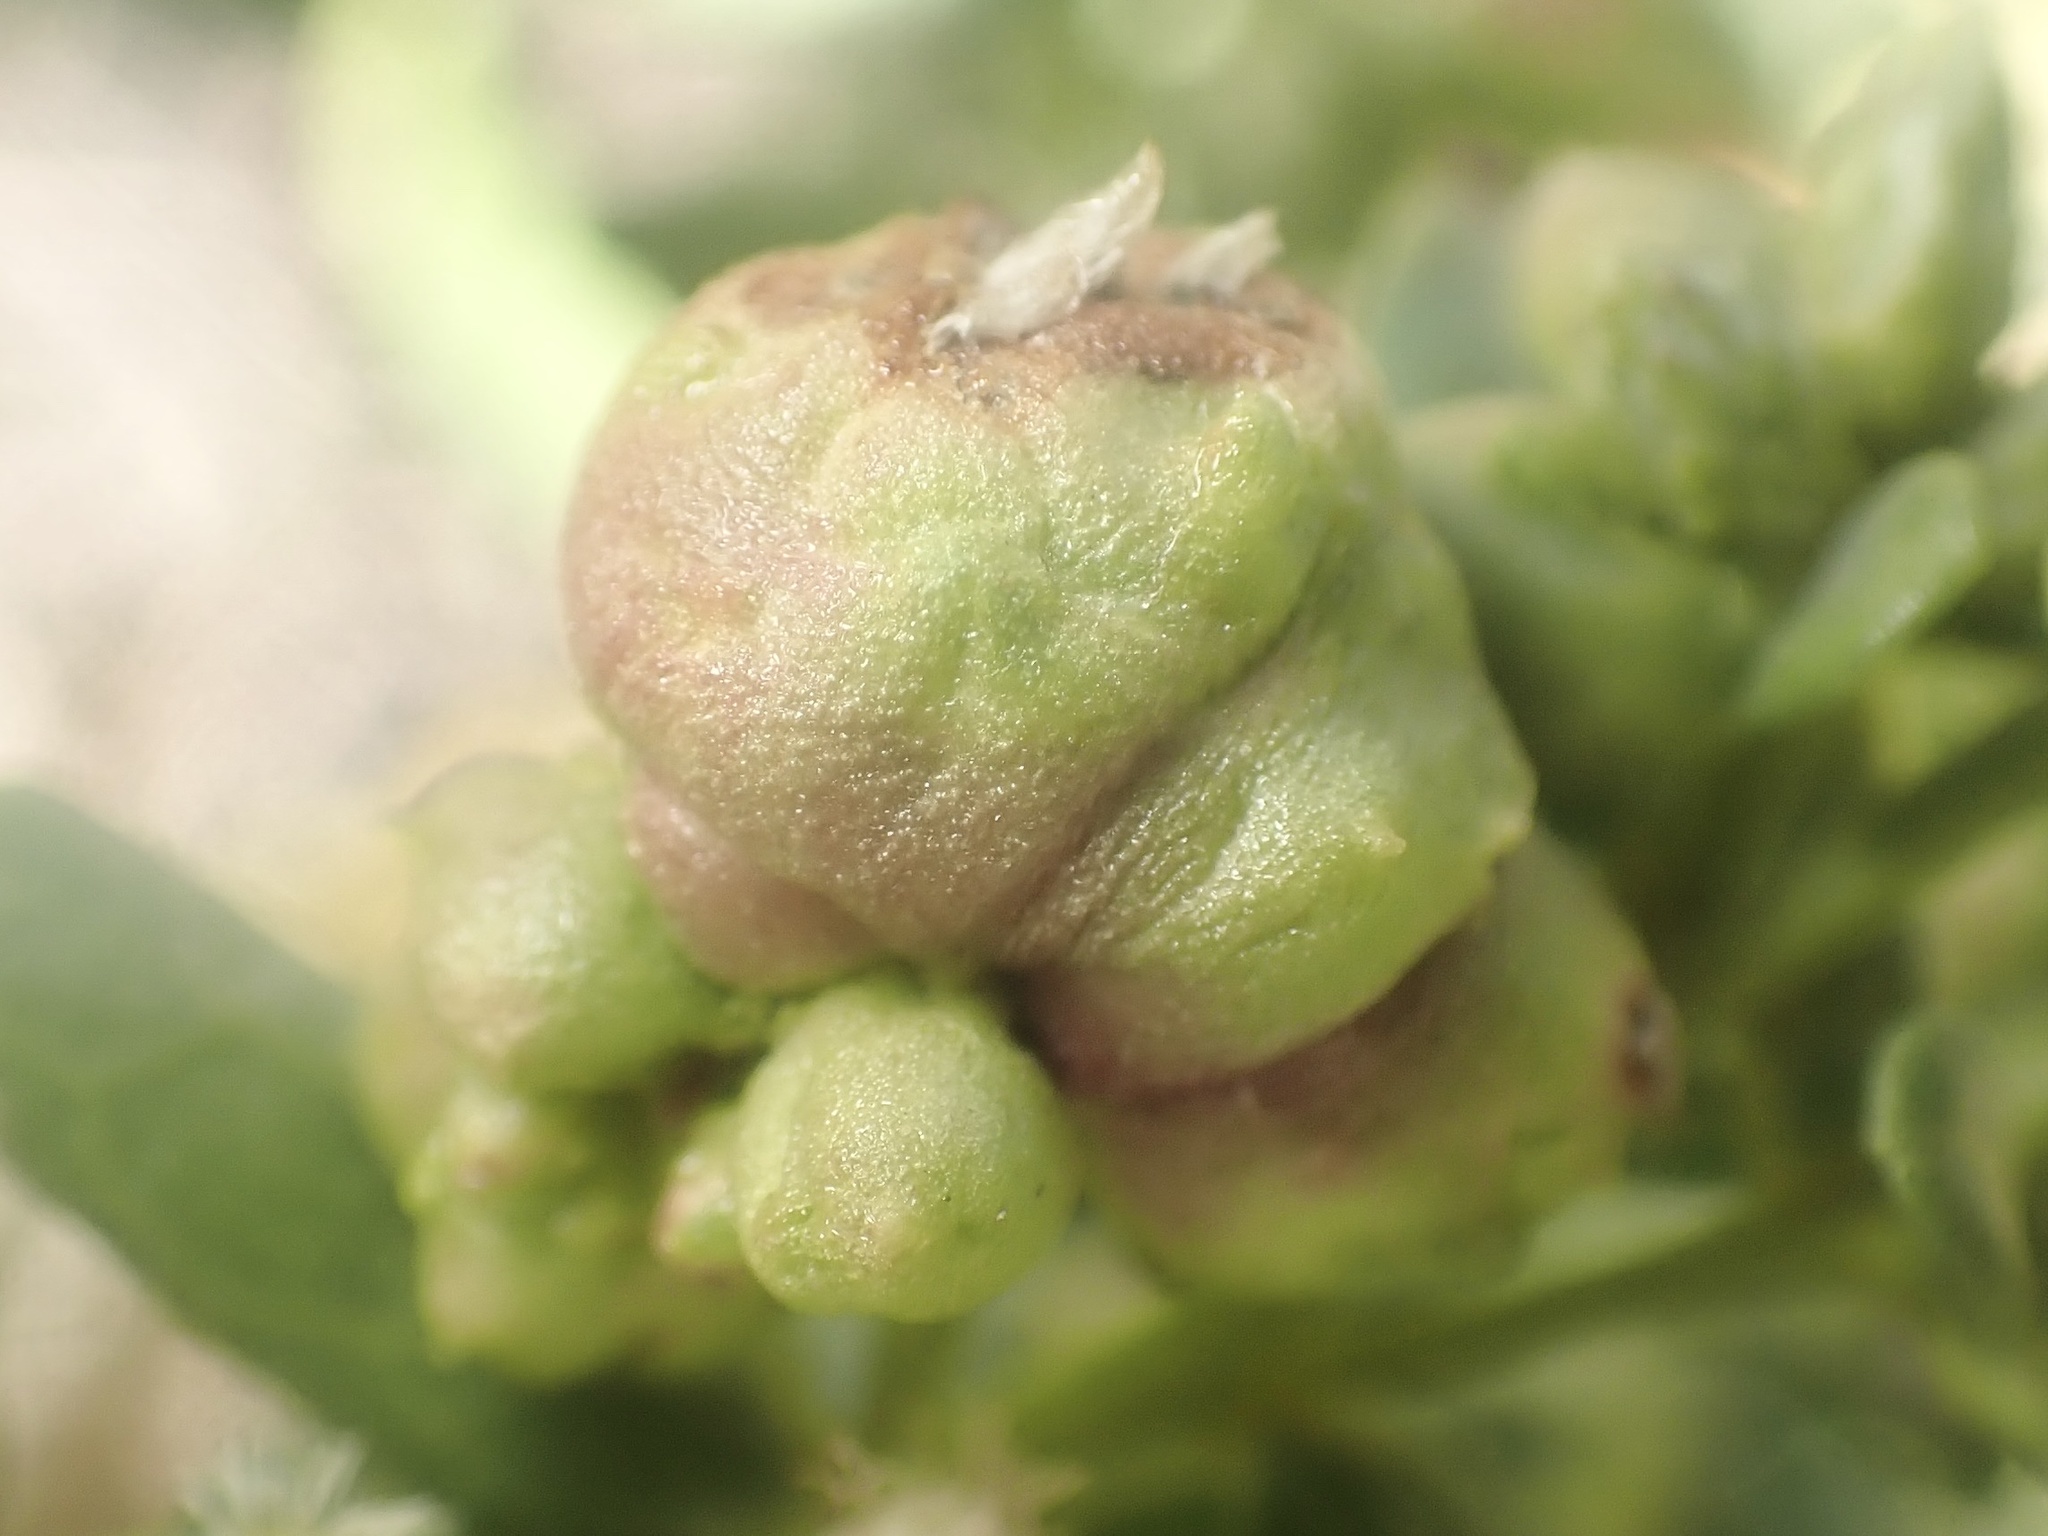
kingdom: Animalia
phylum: Arthropoda
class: Insecta
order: Diptera
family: Cecidomyiidae
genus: Rhopalomyia
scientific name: Rhopalomyia californica
